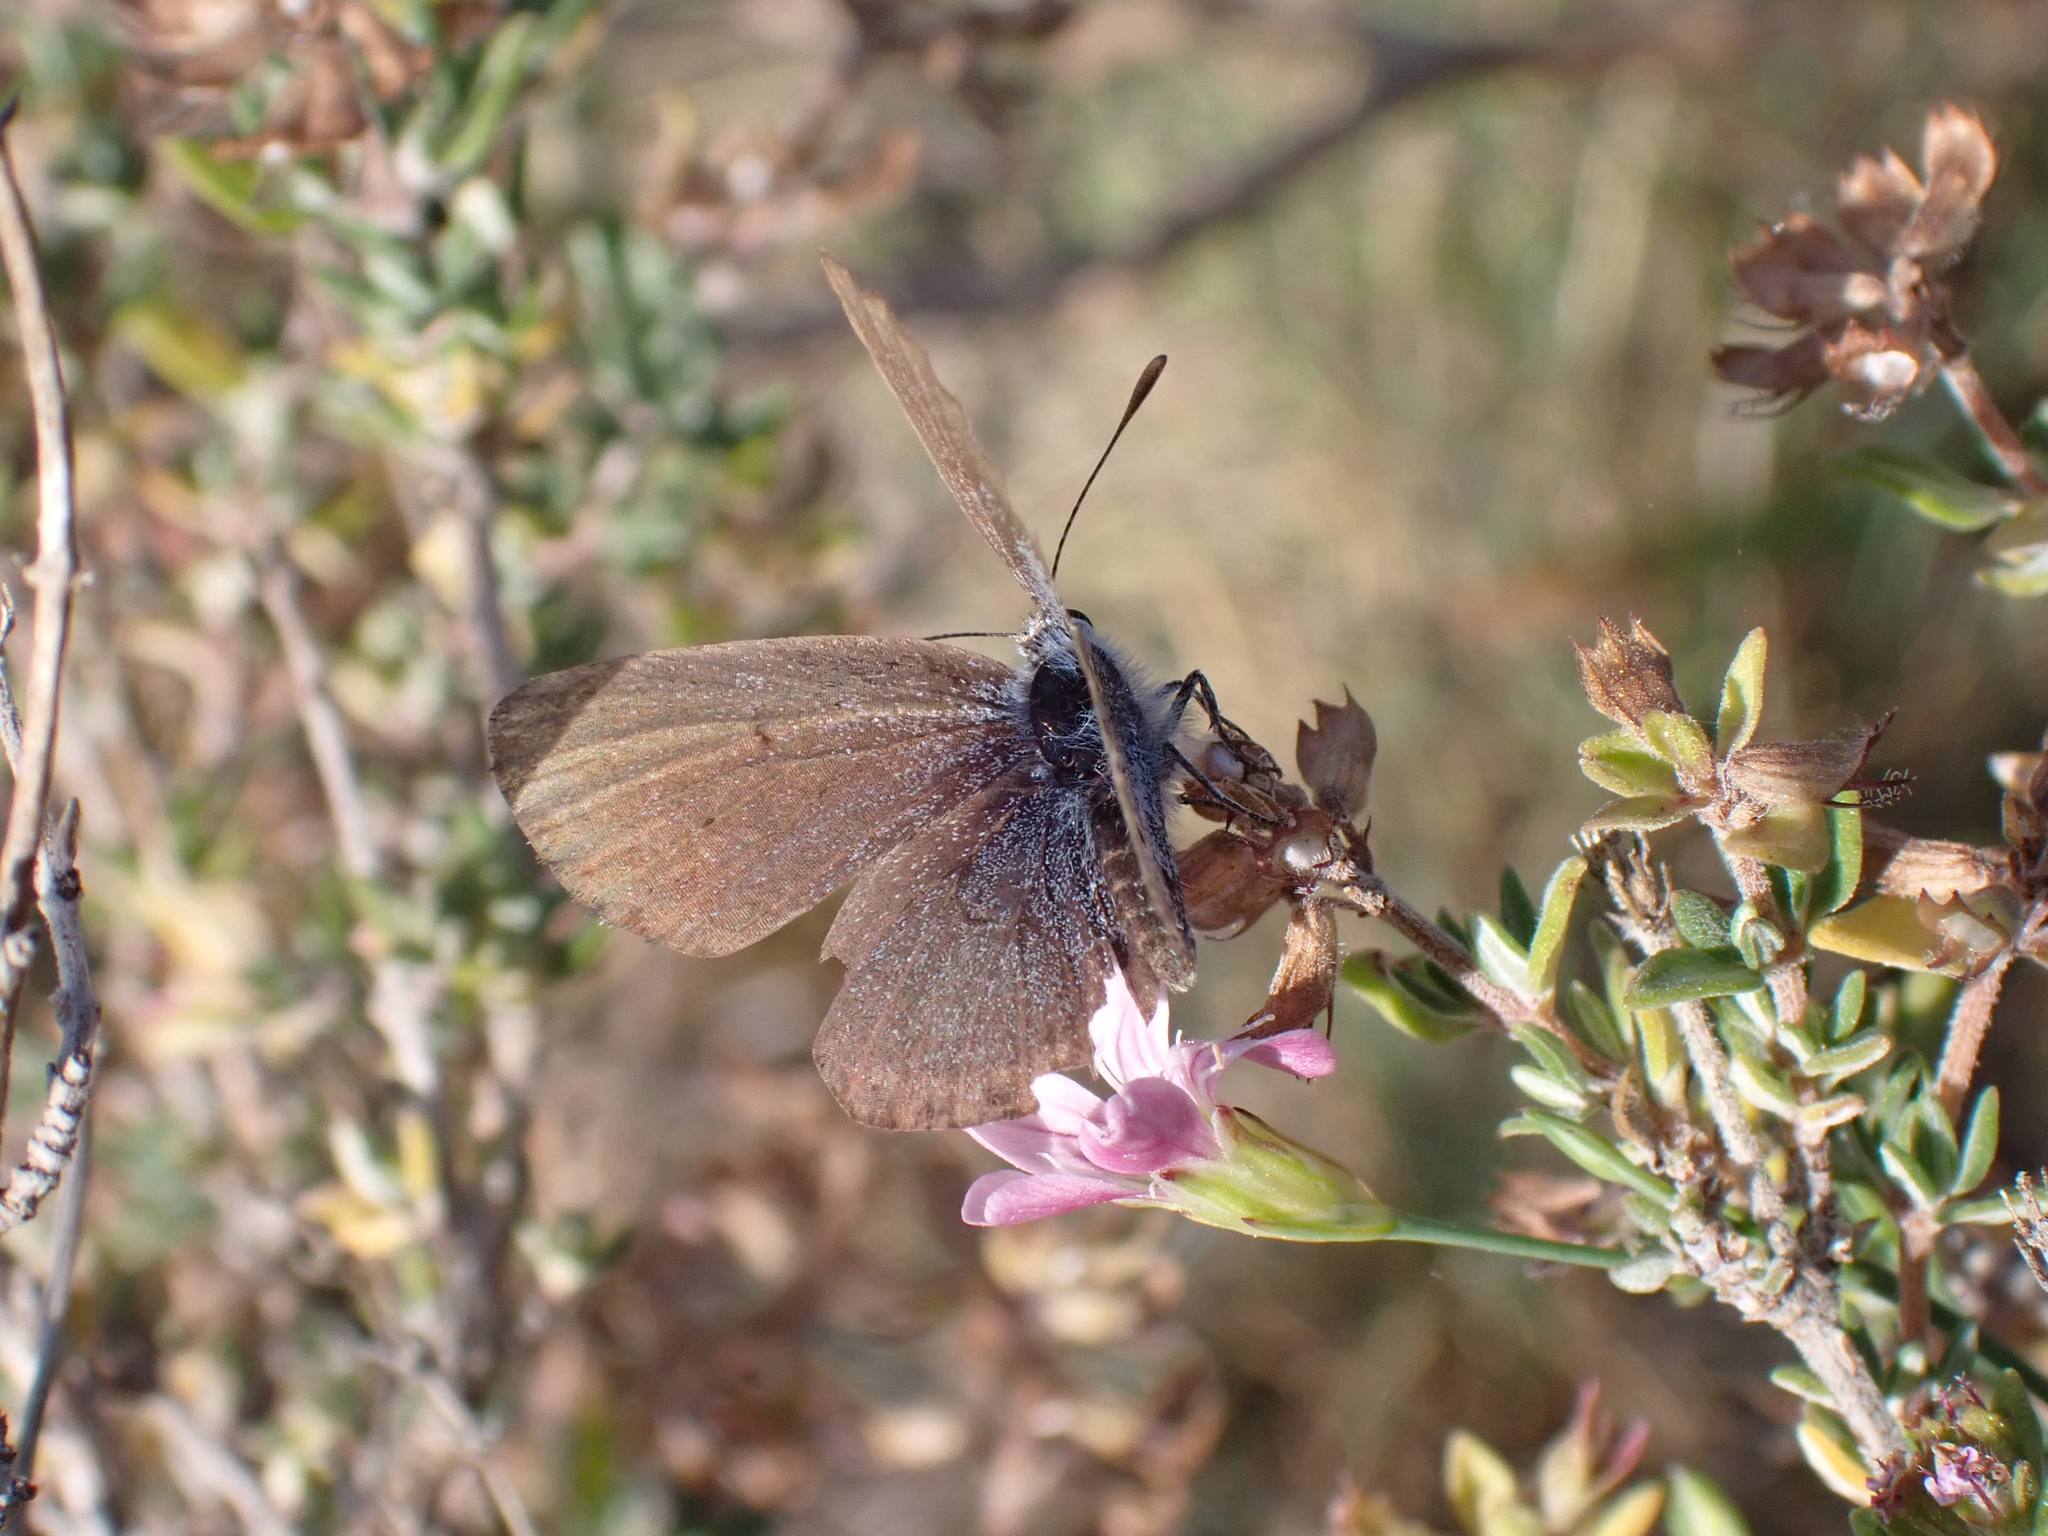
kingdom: Animalia
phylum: Arthropoda
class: Insecta
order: Lepidoptera
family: Lycaenidae
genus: Pseudophilotes
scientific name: Pseudophilotes baton
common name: Baton blue
